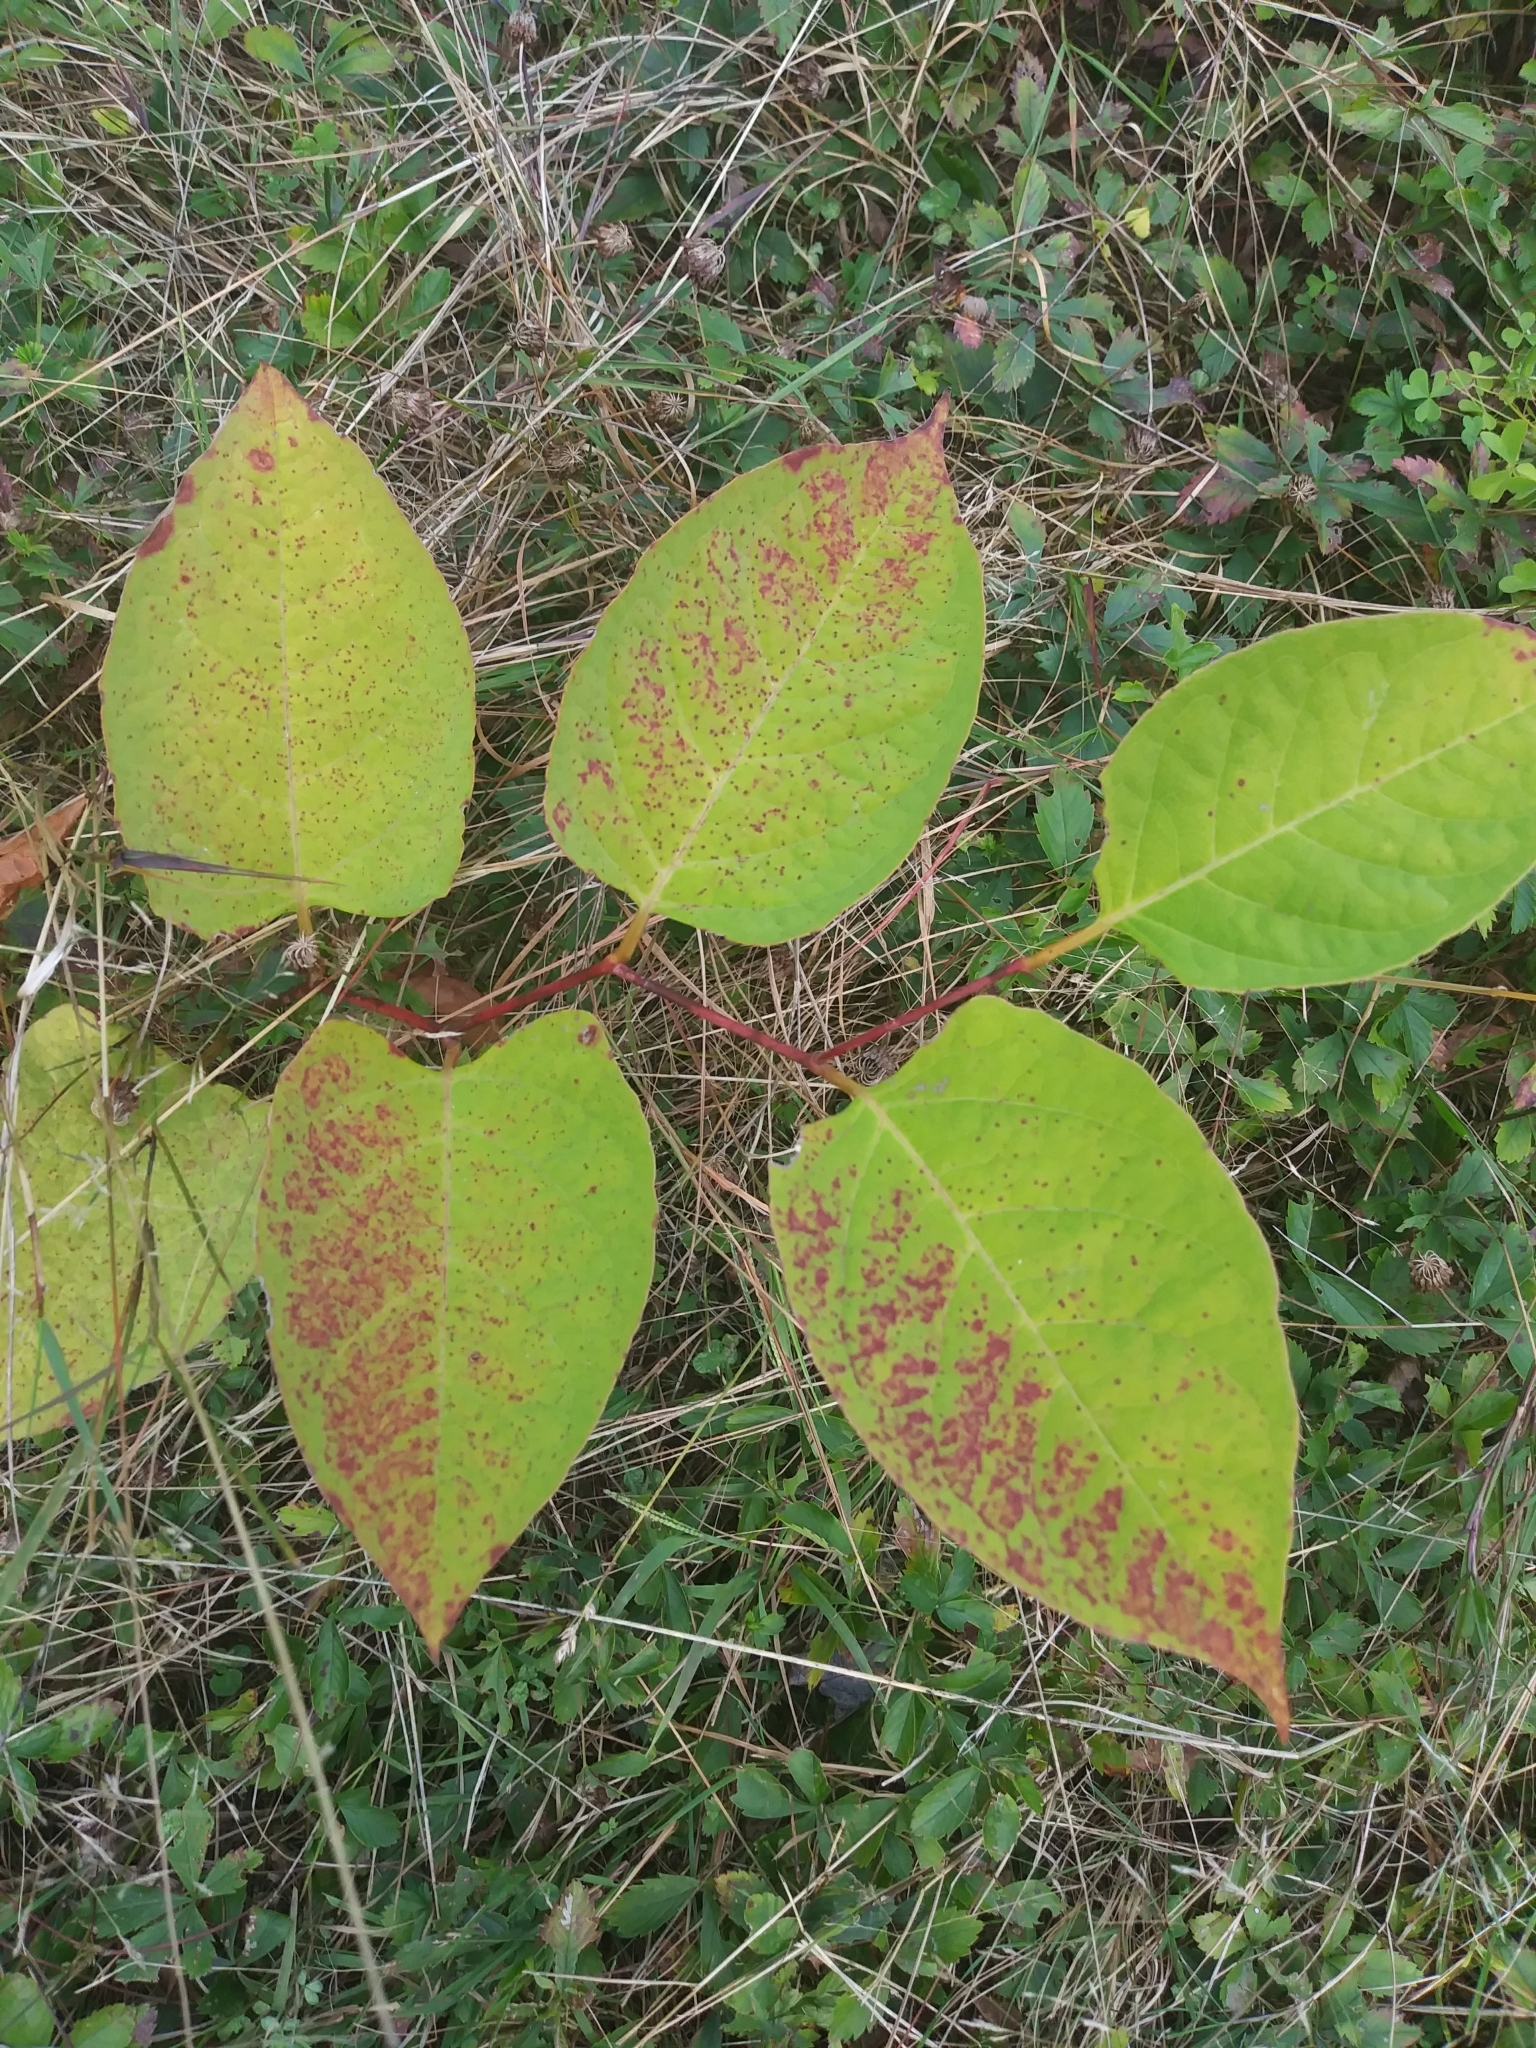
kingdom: Plantae
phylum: Tracheophyta
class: Magnoliopsida
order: Caryophyllales
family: Polygonaceae
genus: Reynoutria
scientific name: Reynoutria japonica
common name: Japanese knotweed
